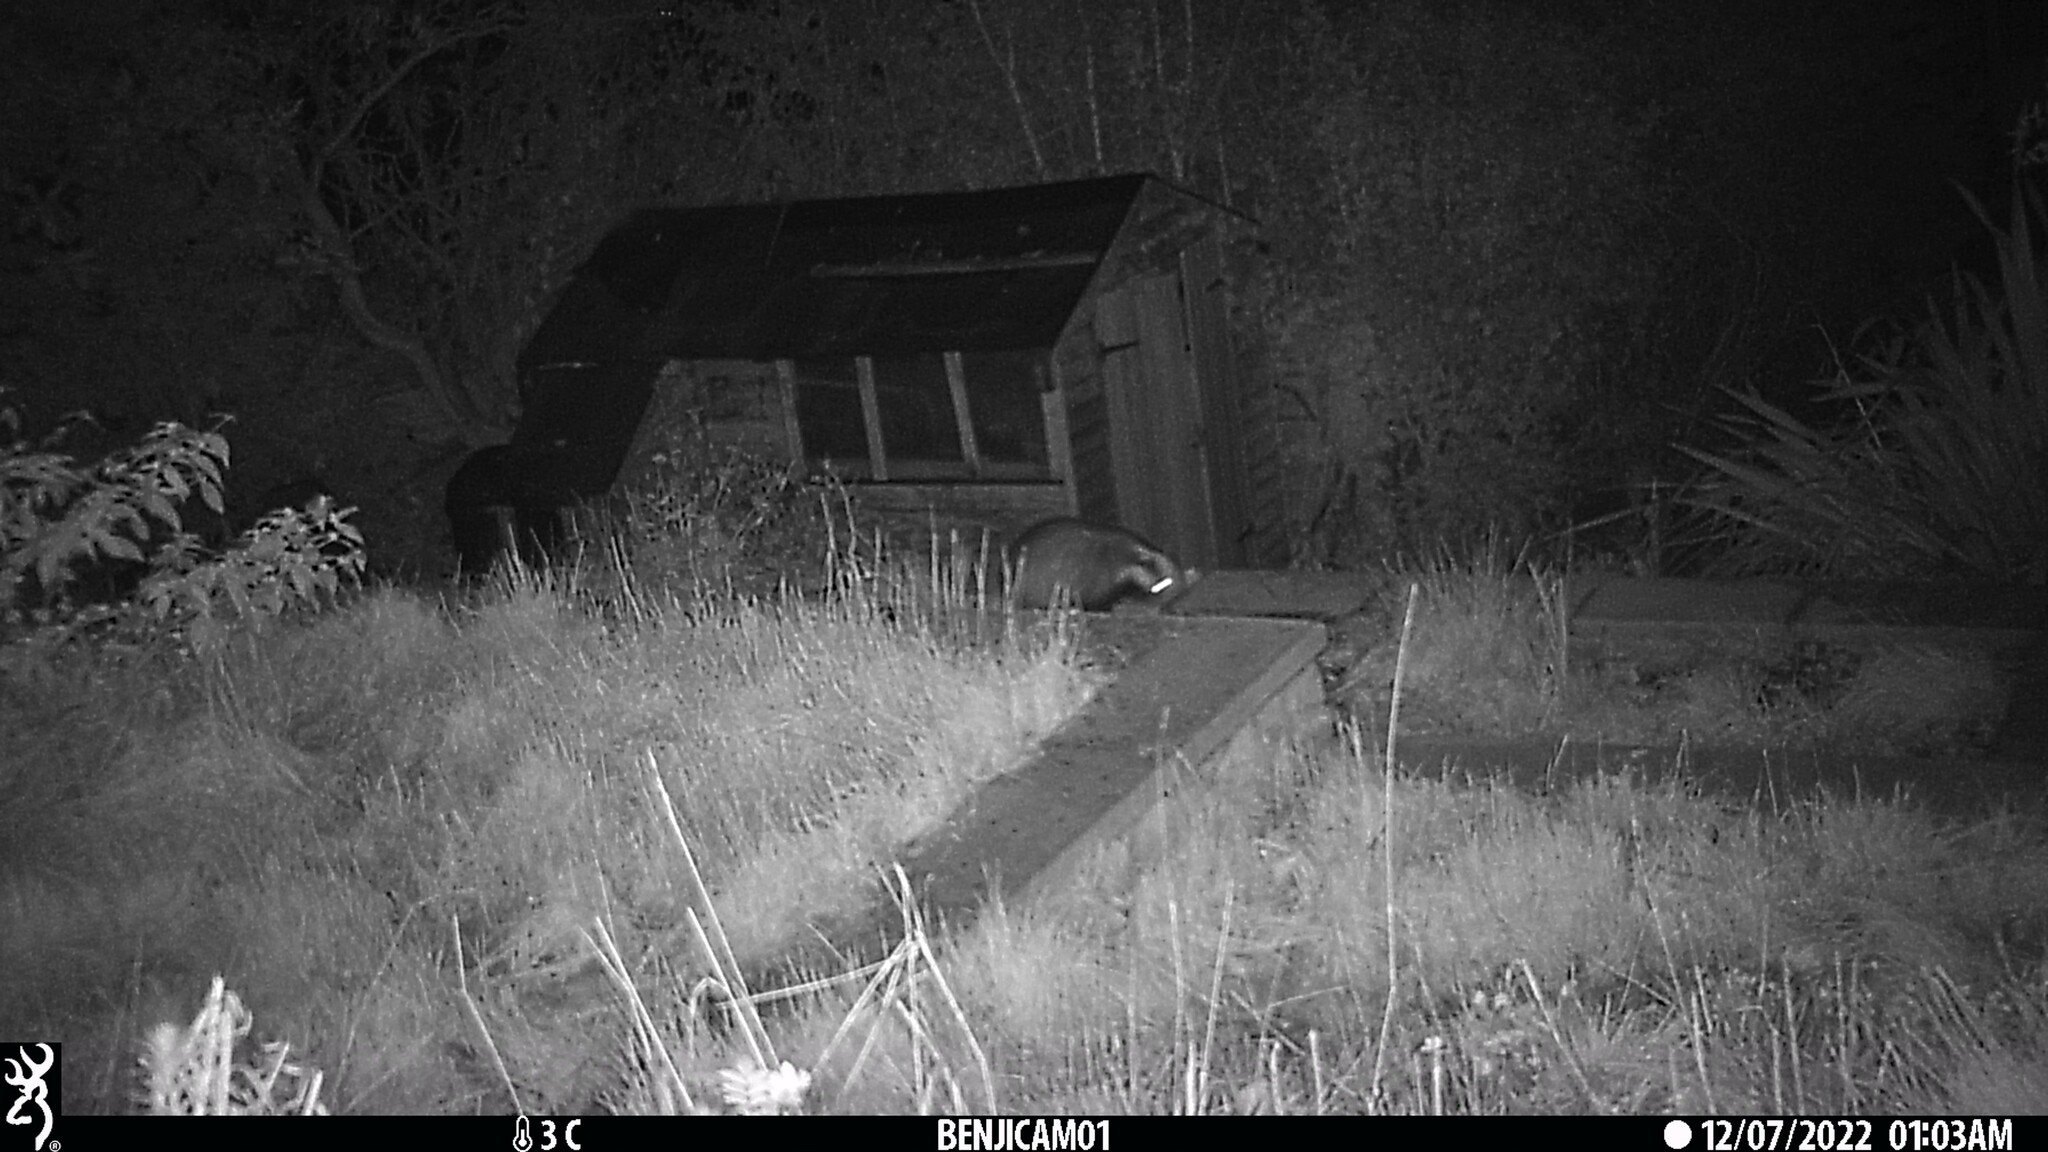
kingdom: Animalia
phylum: Chordata
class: Mammalia
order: Carnivora
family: Mustelidae
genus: Meles
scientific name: Meles meles
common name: Eurasian badger
